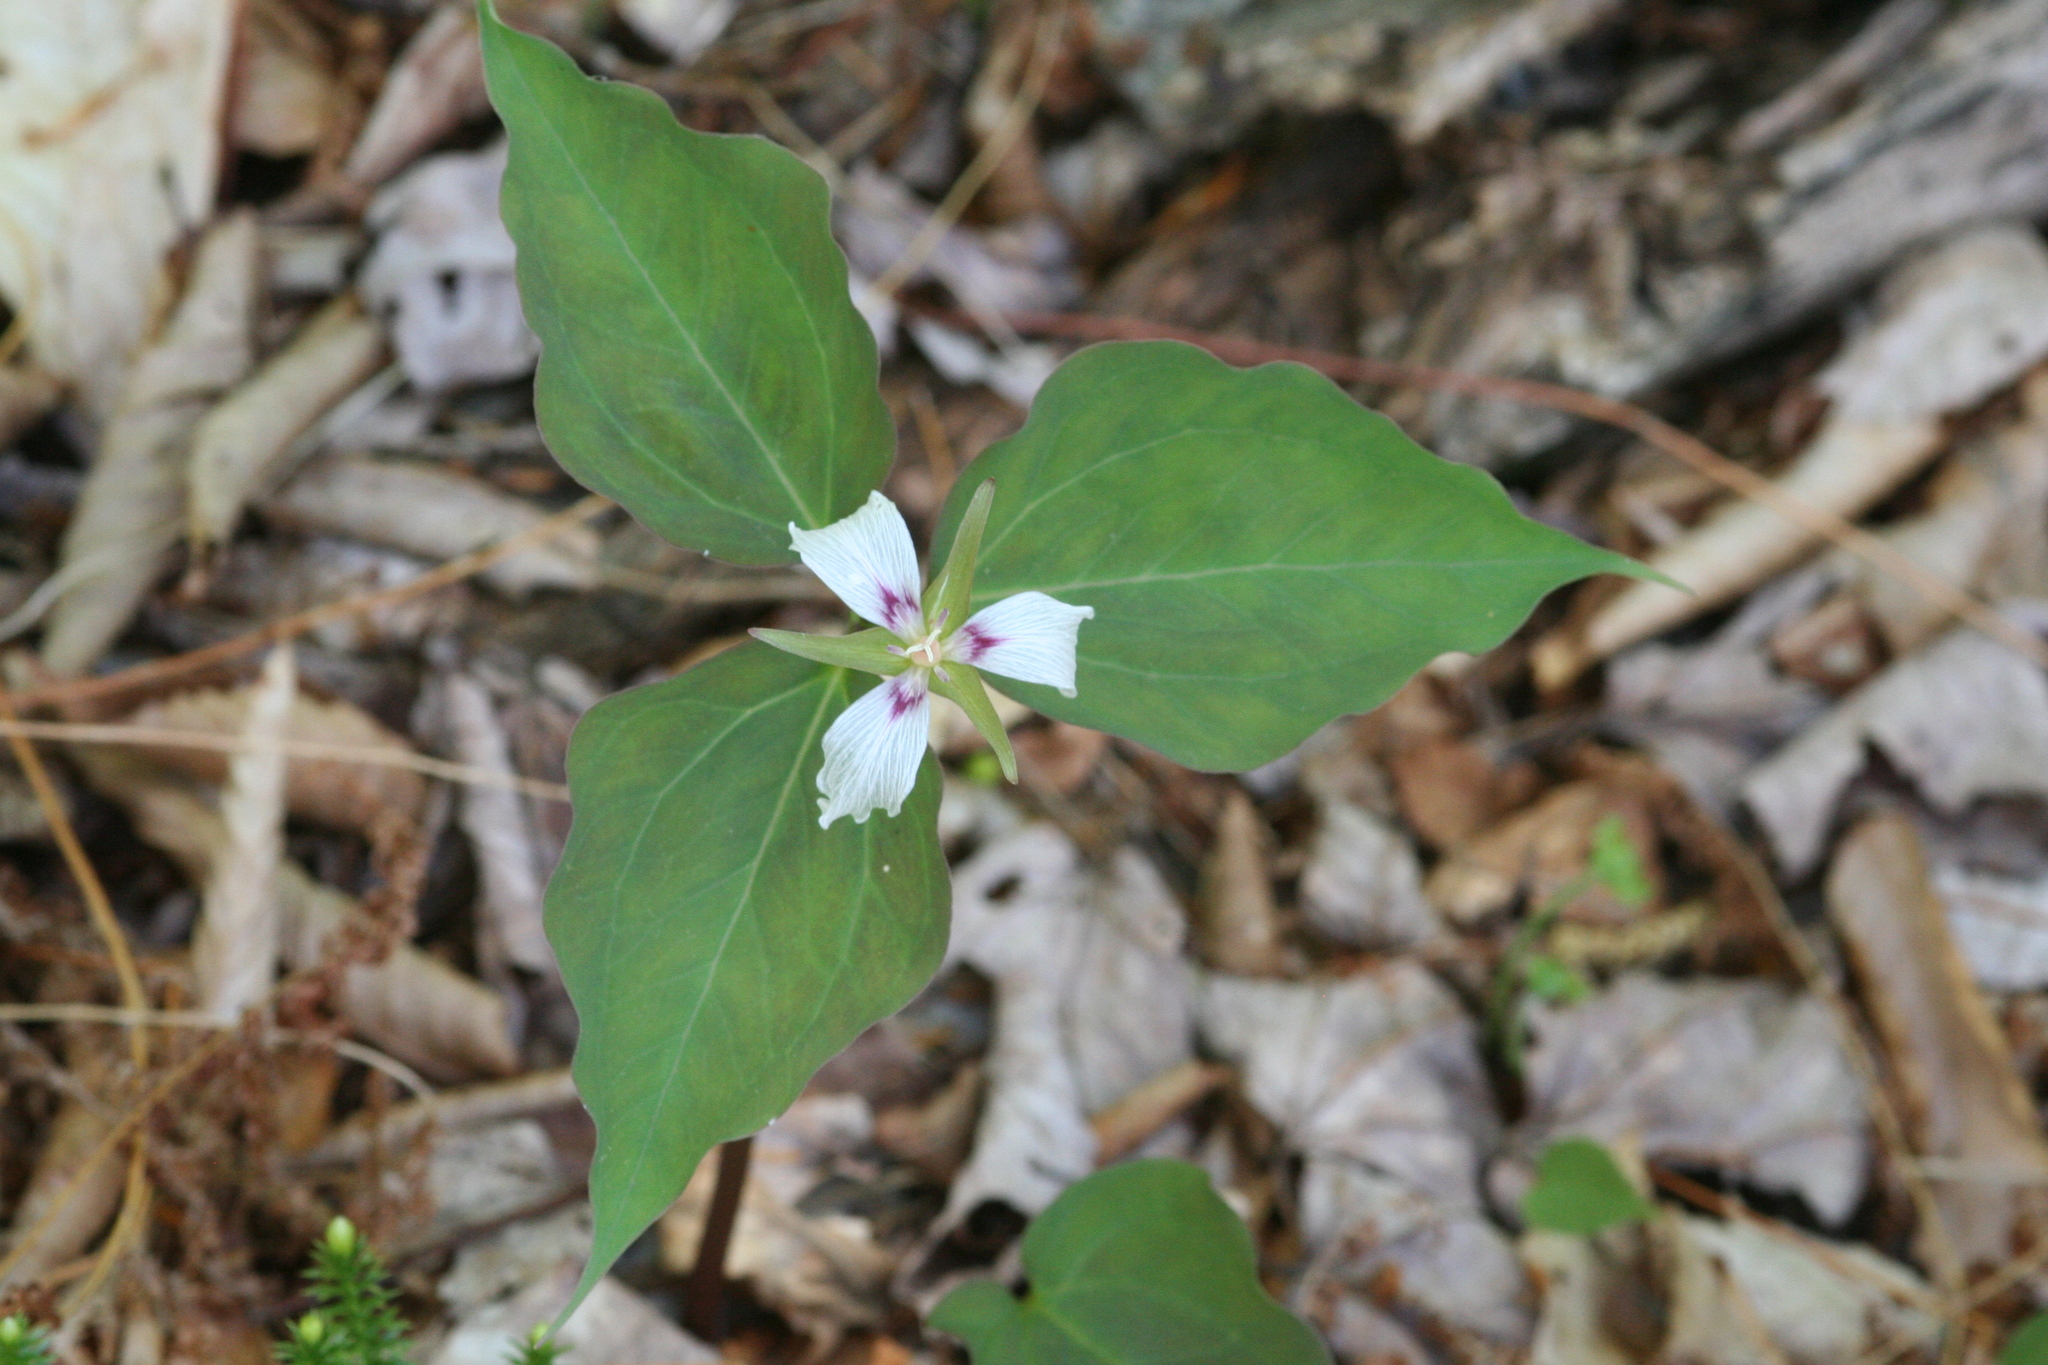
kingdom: Plantae
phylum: Tracheophyta
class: Liliopsida
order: Liliales
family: Melanthiaceae
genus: Trillium
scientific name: Trillium undulatum
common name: Paint trillium
